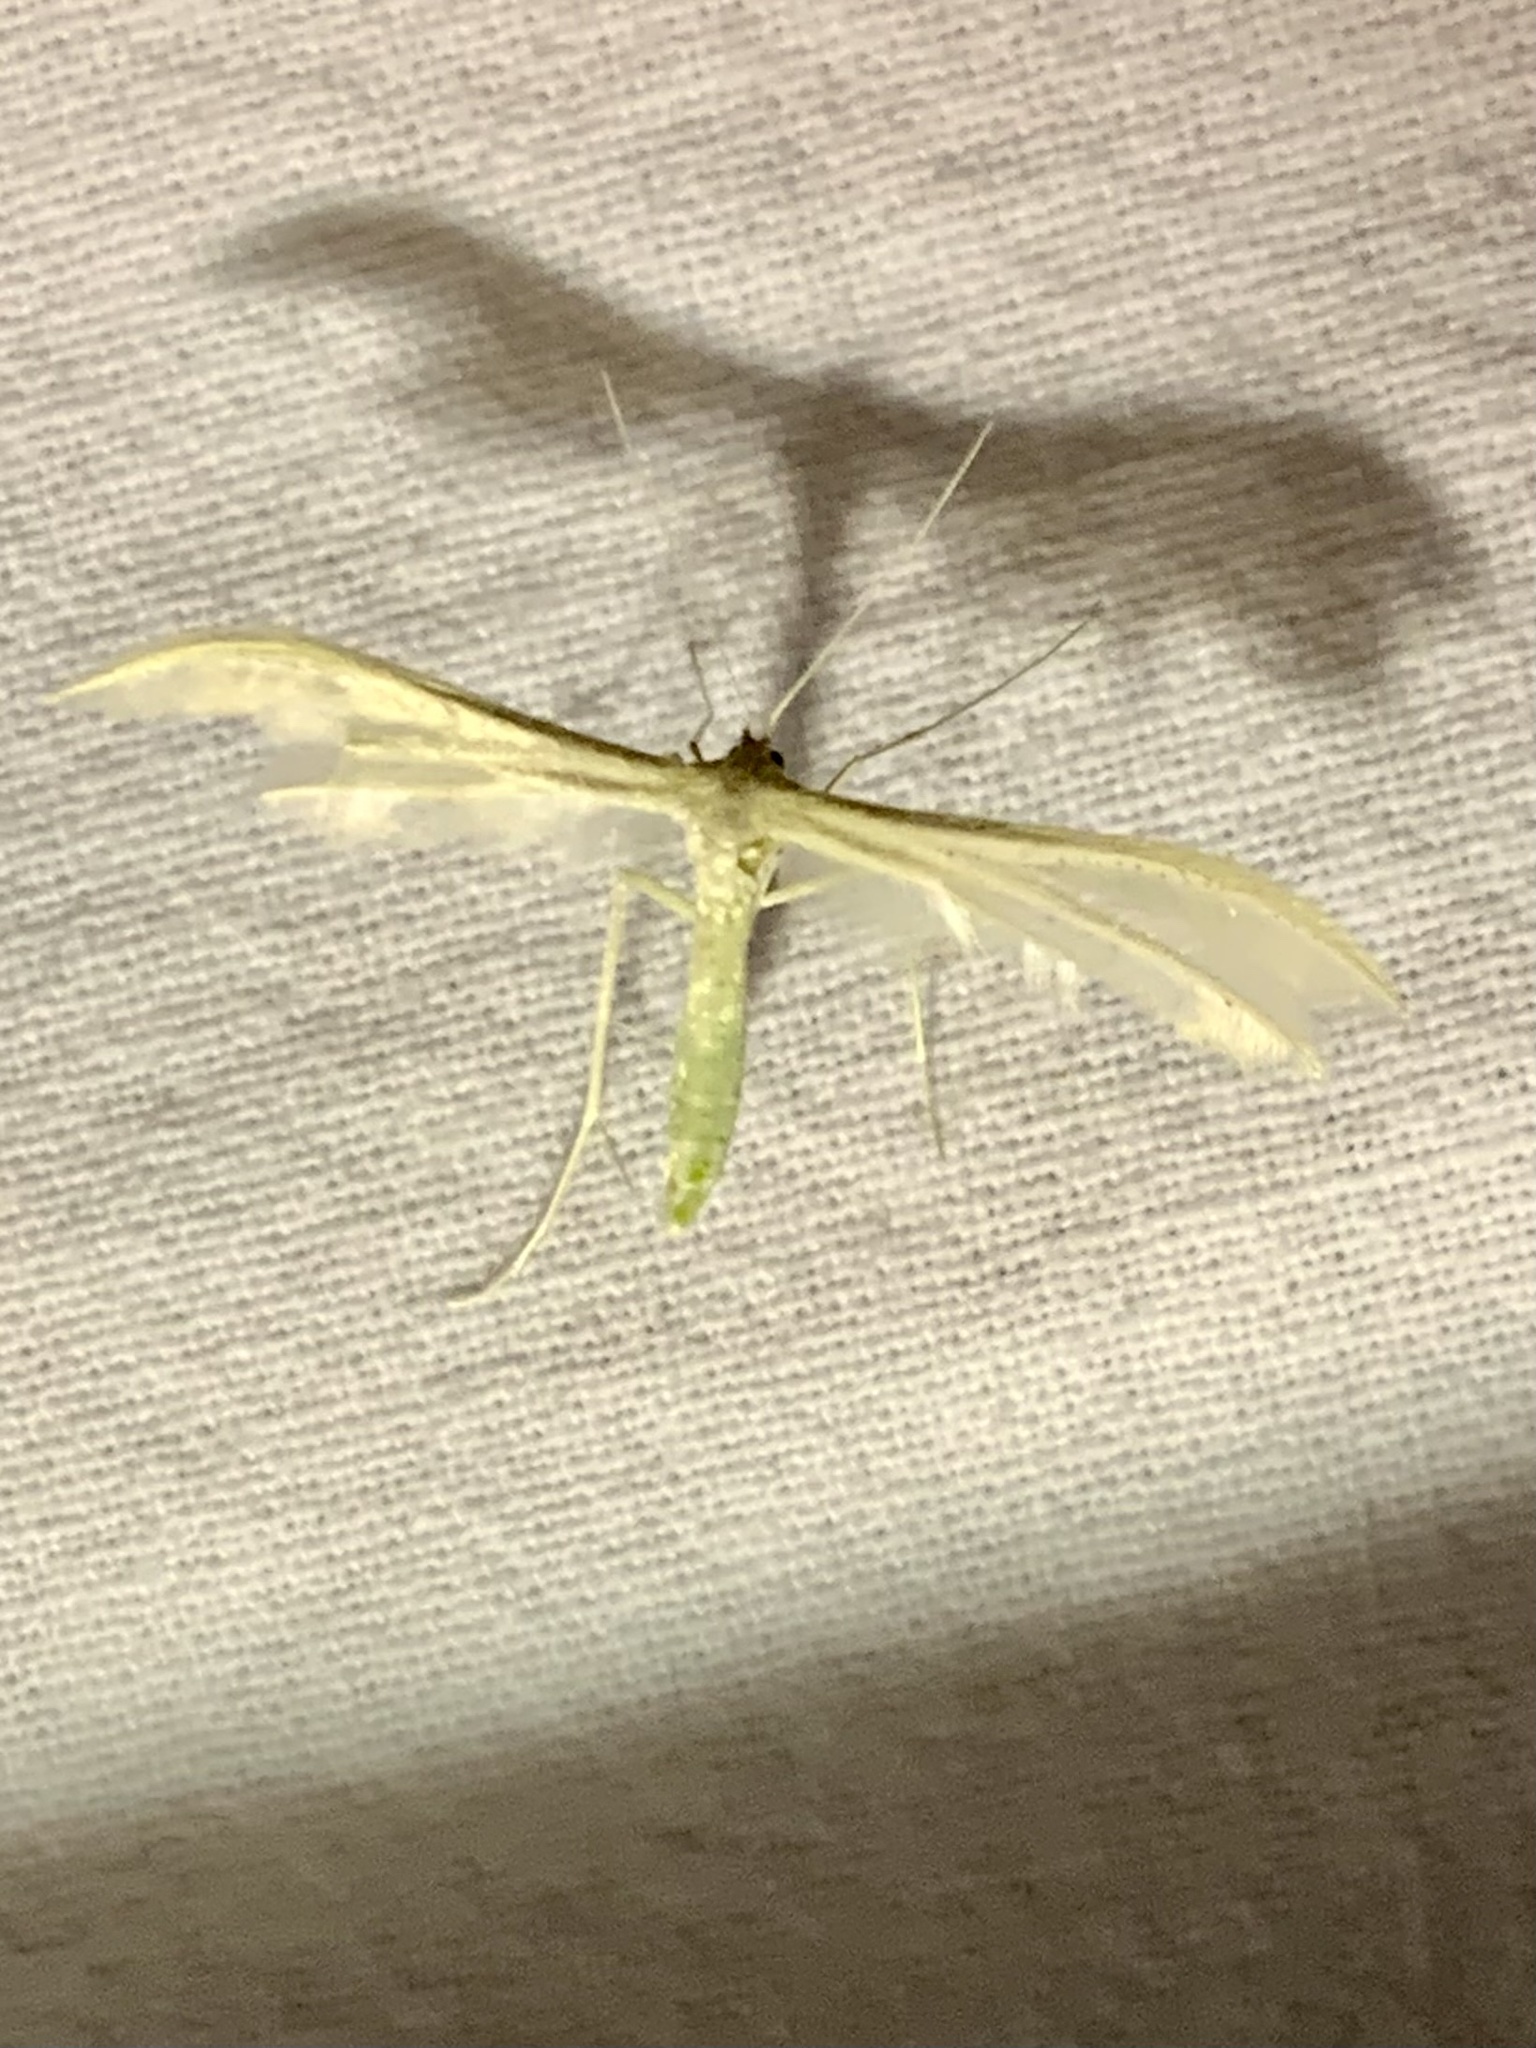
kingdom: Animalia
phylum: Arthropoda
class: Insecta
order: Lepidoptera
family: Pterophoridae
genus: Pterophorus
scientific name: Pterophorus pentadactyla
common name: White plume moth
